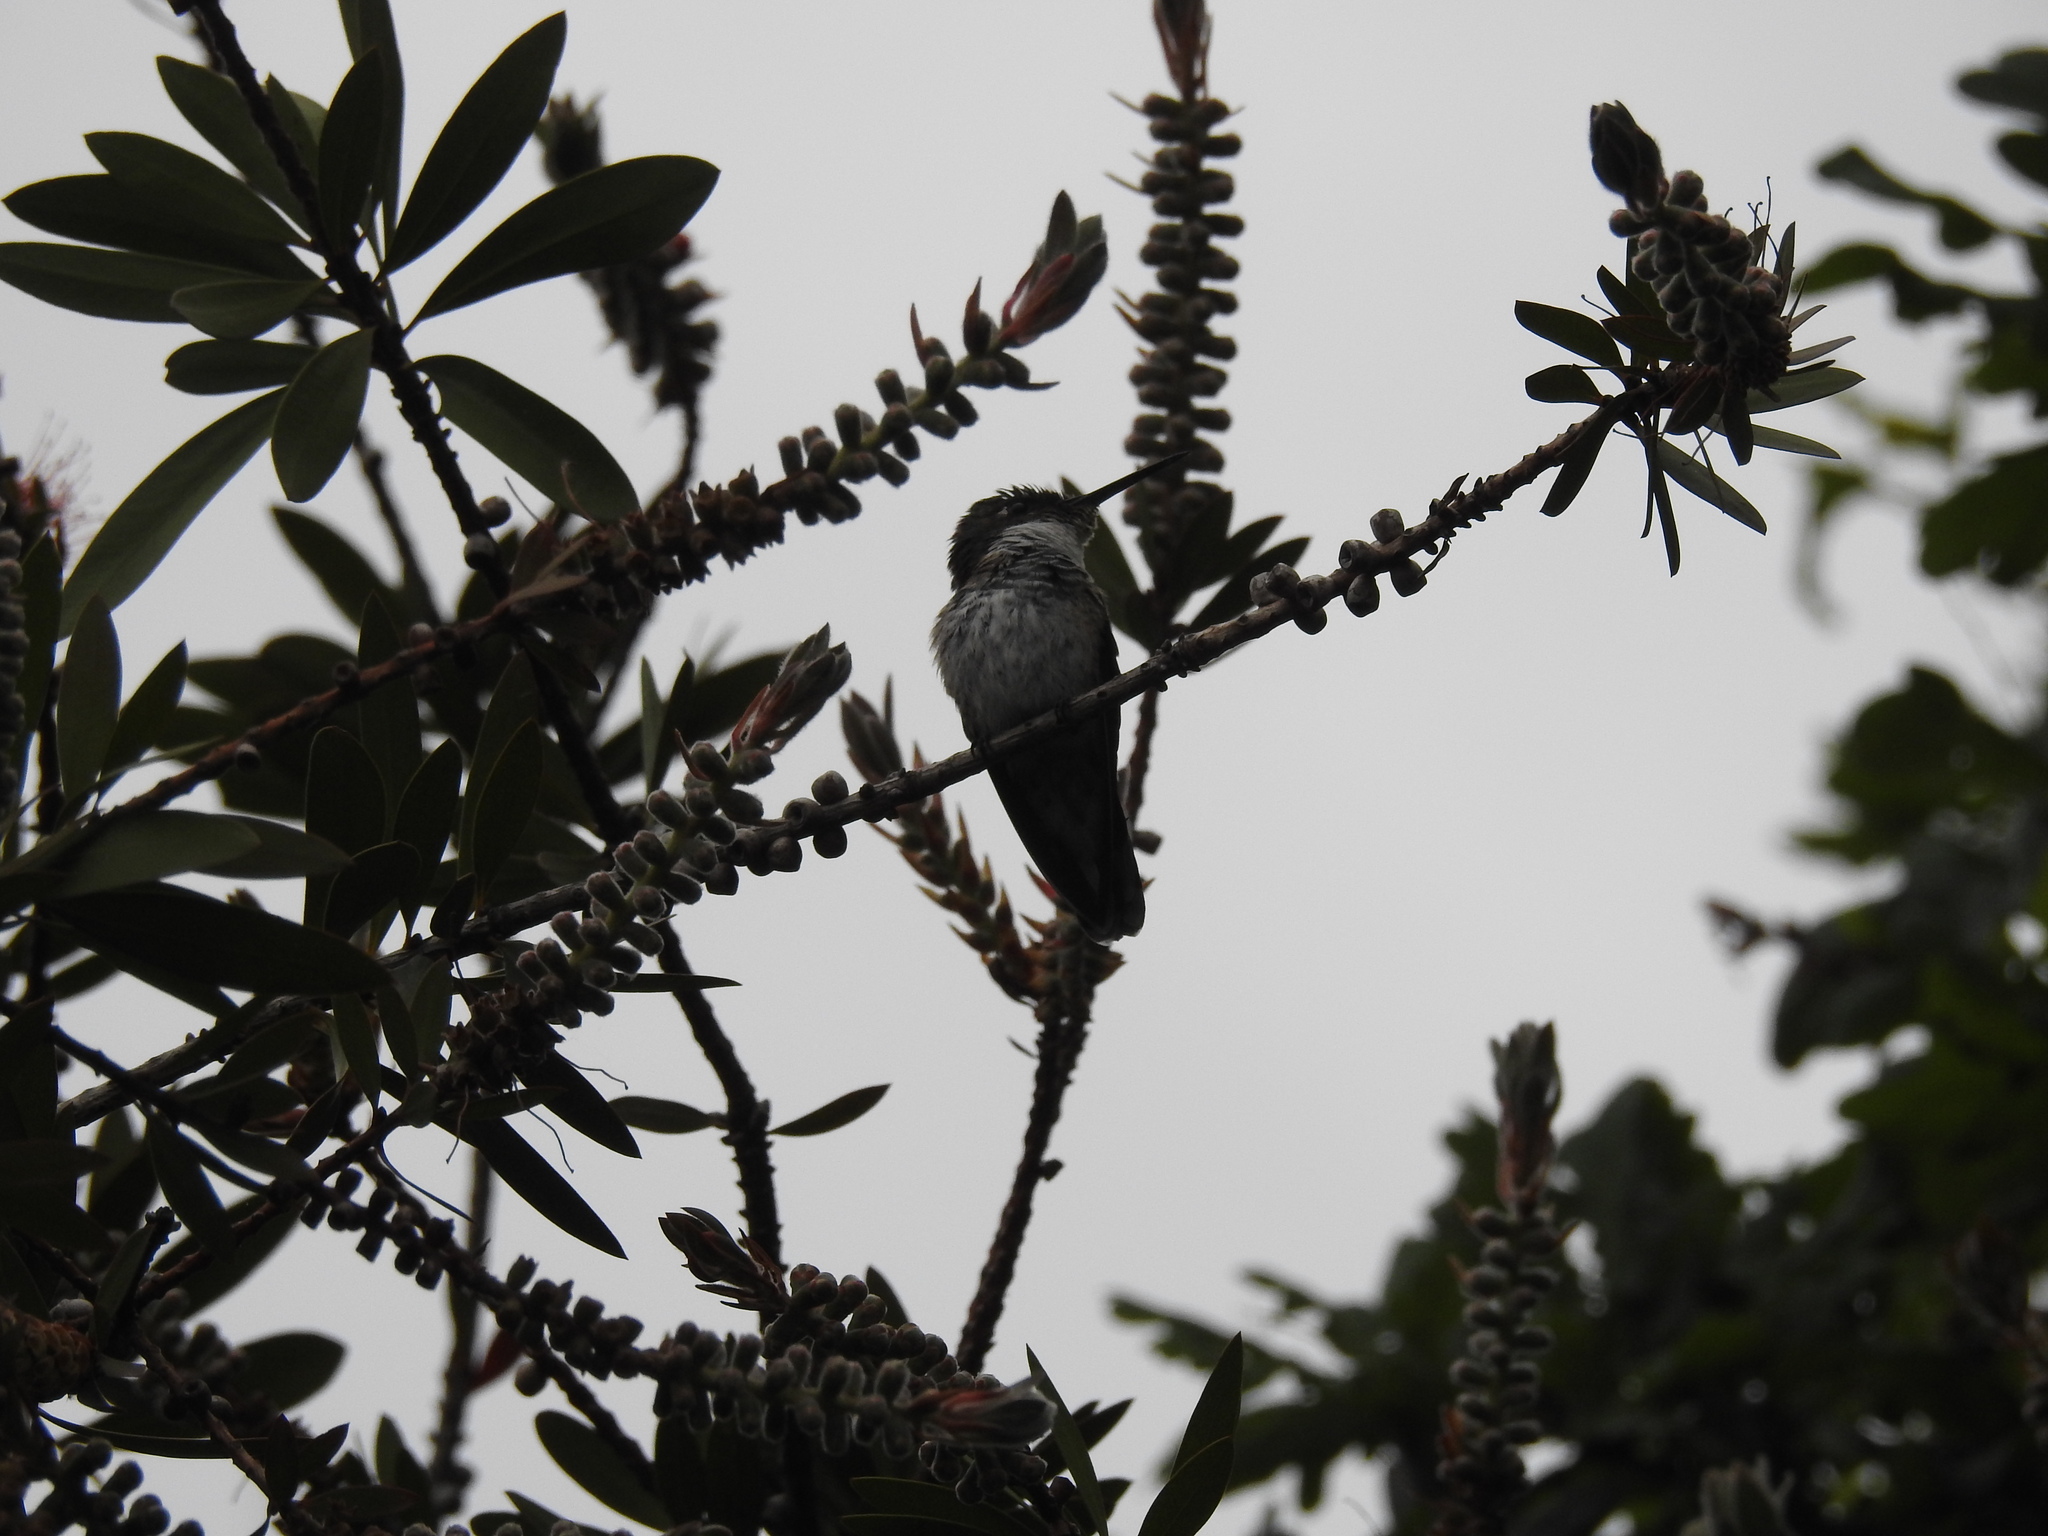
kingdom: Animalia
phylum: Chordata
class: Aves
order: Apodiformes
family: Trochilidae
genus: Leucochloris
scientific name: Leucochloris albicollis
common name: White-throated hummingbird
